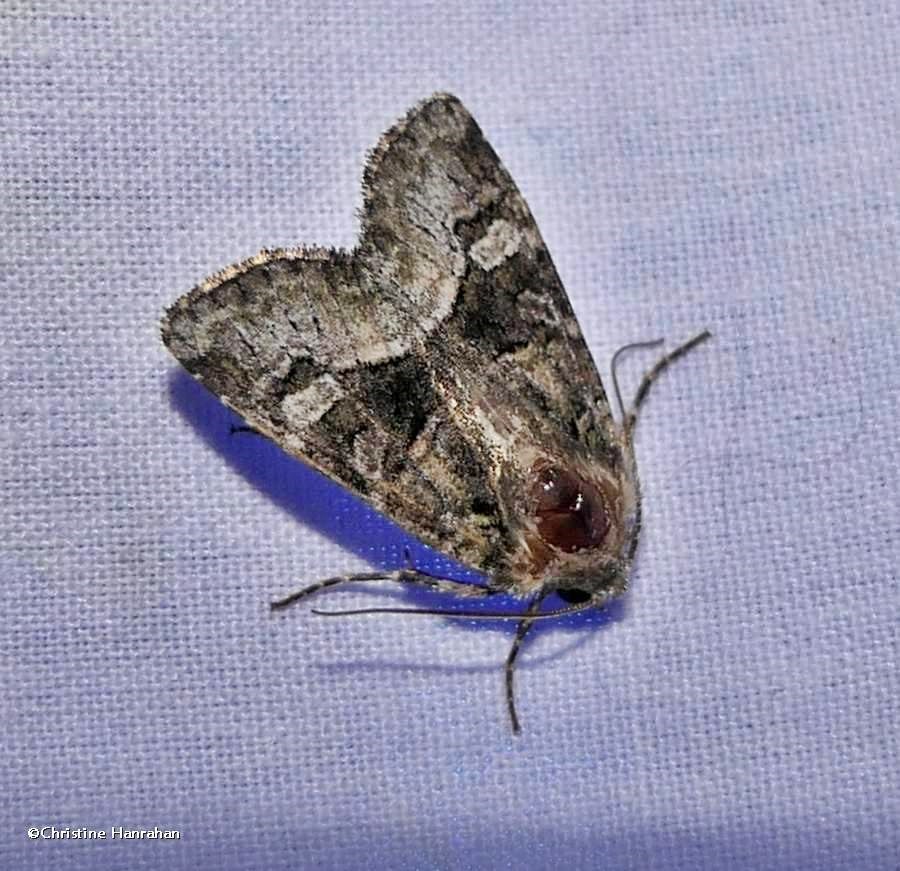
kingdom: Animalia
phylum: Arthropoda
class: Insecta
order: Lepidoptera
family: Noctuidae
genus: Lacinipolia
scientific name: Lacinipolia olivacea
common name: Olive arches moth
